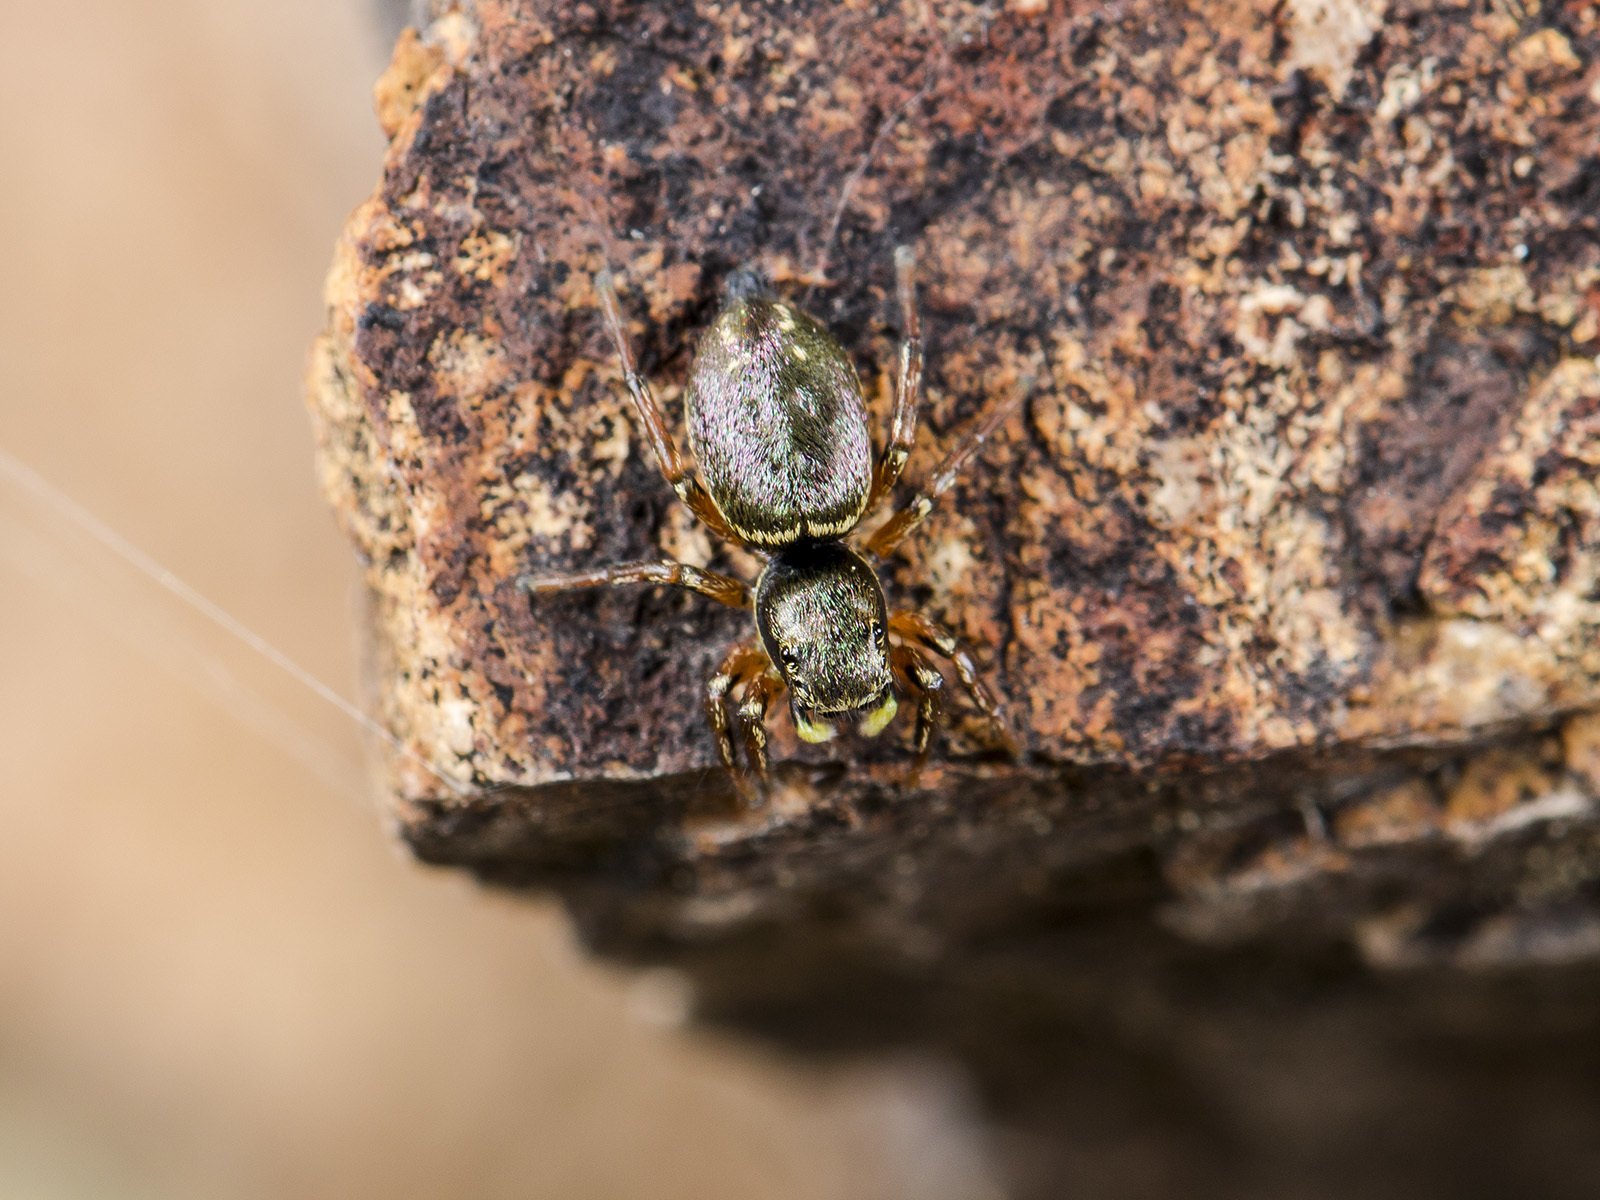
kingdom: Animalia
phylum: Arthropoda
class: Arachnida
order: Araneae
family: Salticidae
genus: Heliophanus
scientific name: Heliophanus wesolowskae
